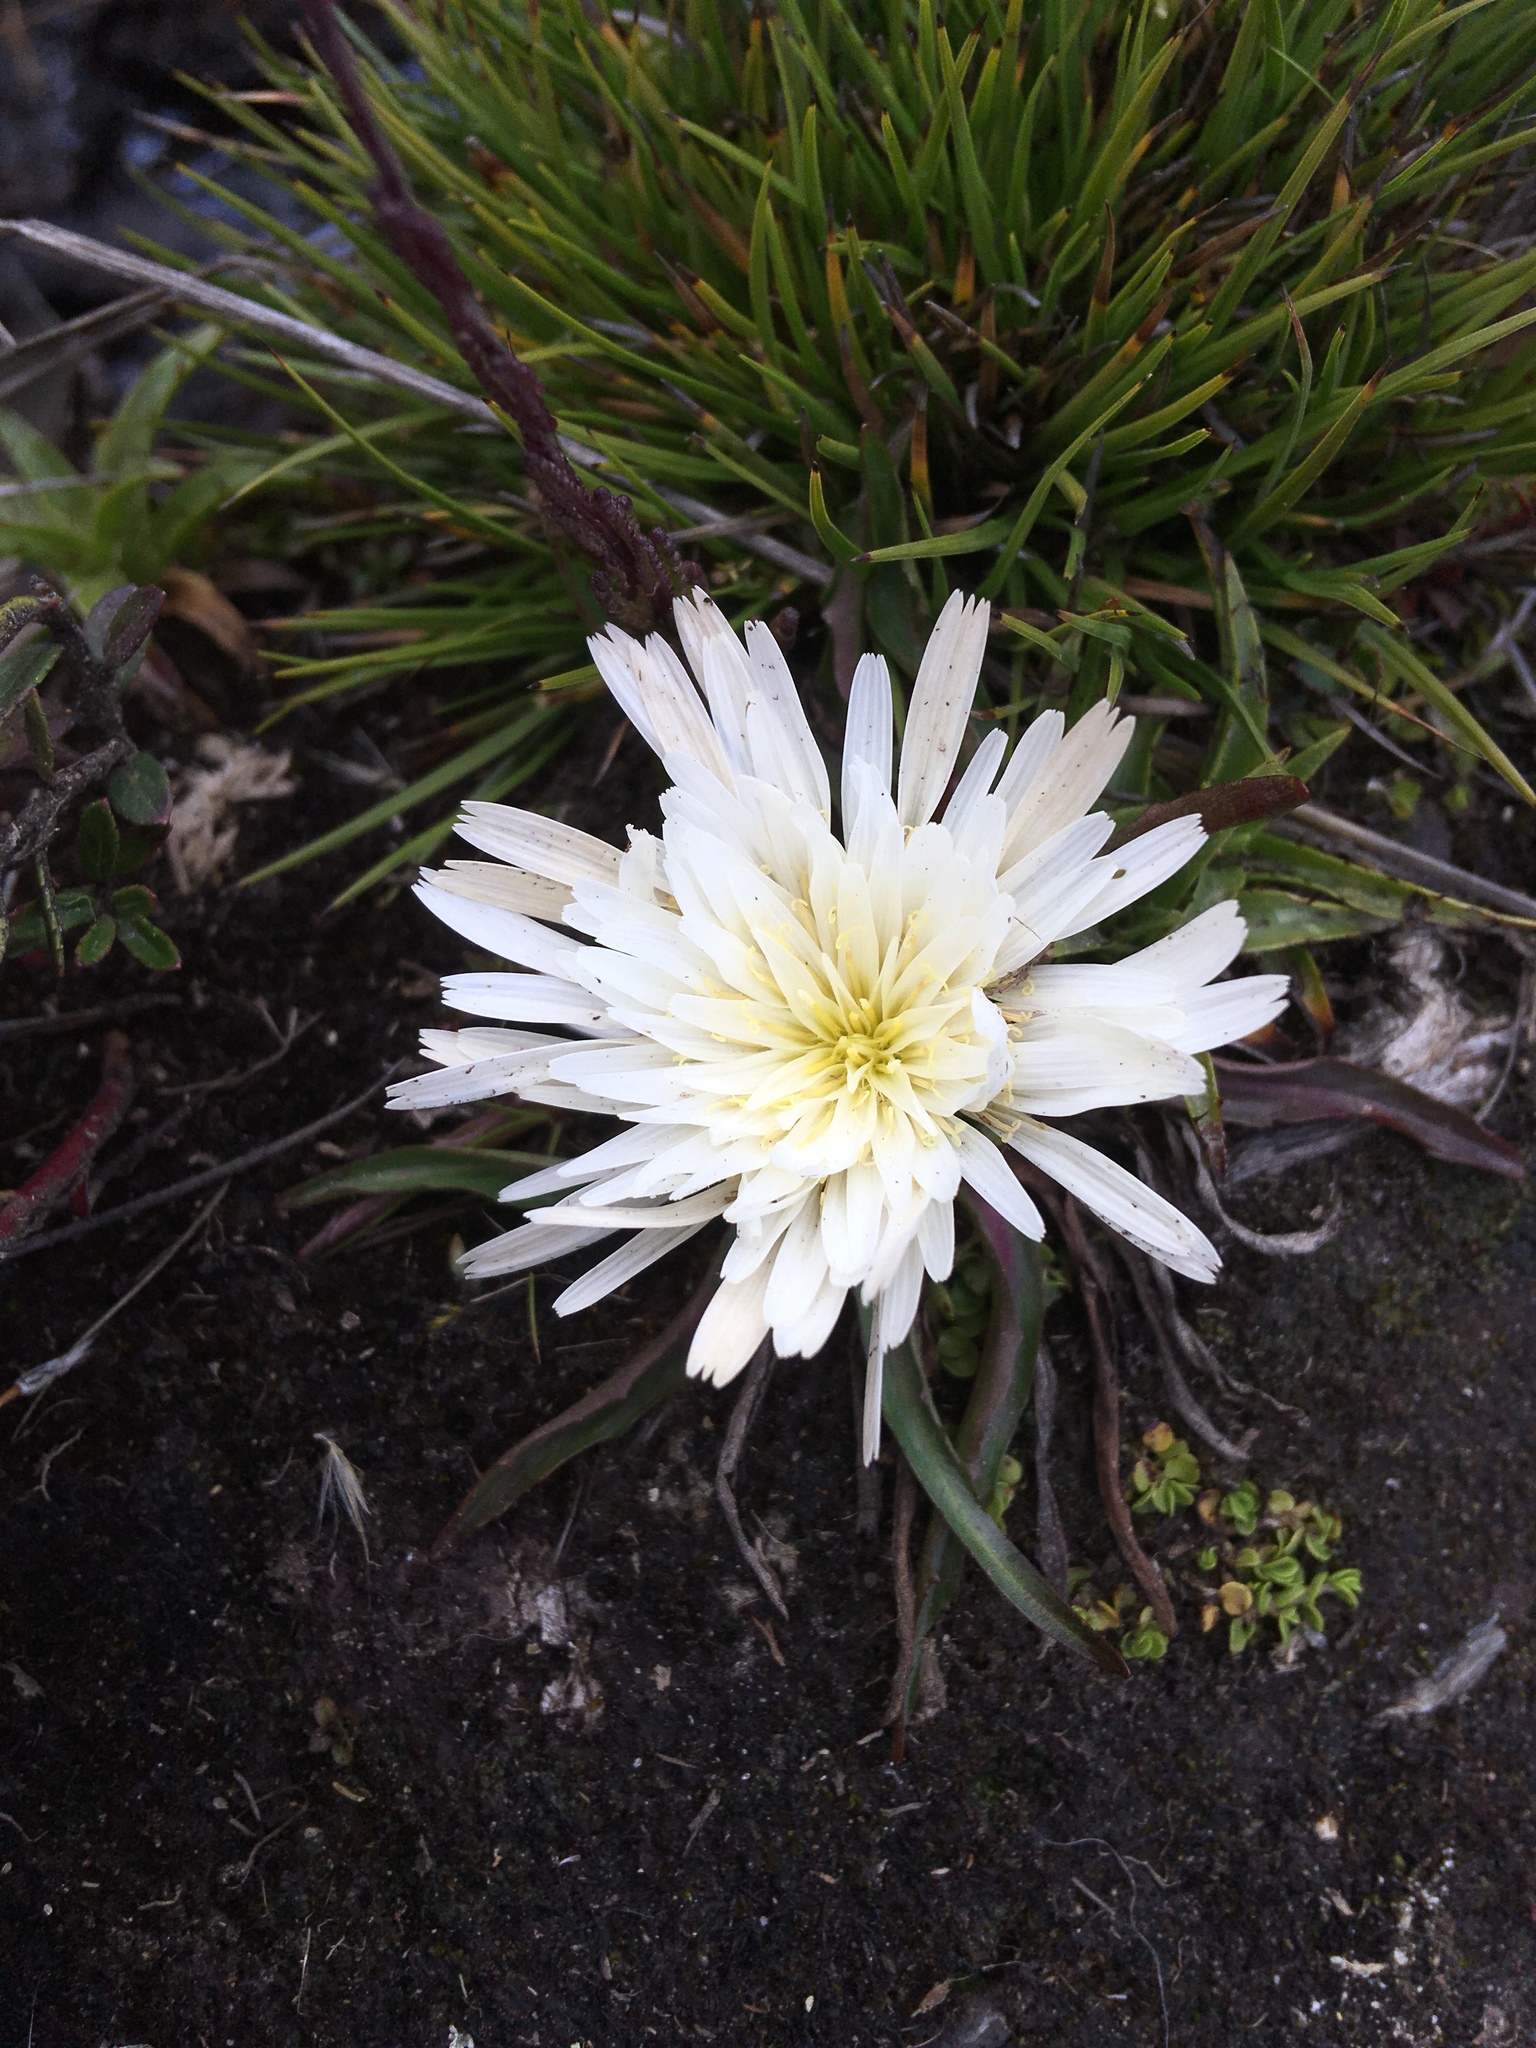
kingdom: Plantae
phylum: Tracheophyta
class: Magnoliopsida
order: Asterales
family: Asteraceae
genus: Hypochaeris
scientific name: Hypochaeris sessiliflora
